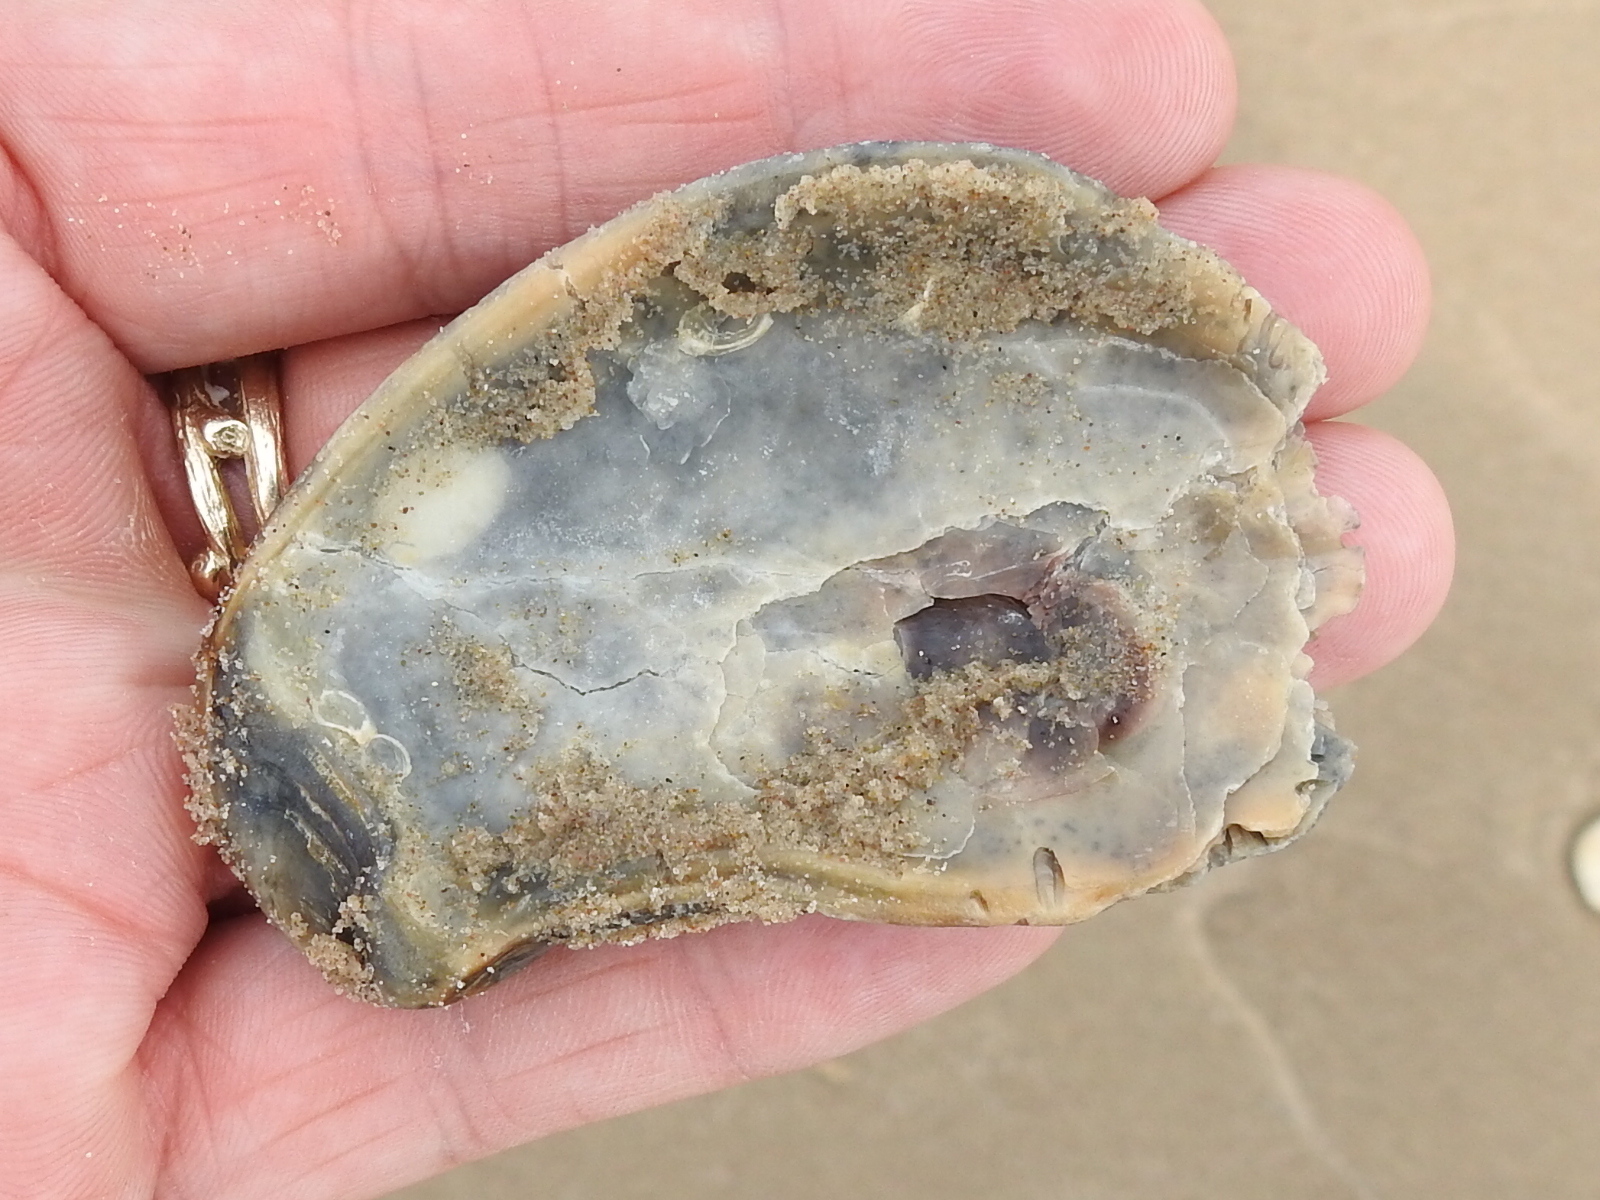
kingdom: Animalia
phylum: Mollusca
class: Bivalvia
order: Ostreida
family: Ostreidae
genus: Crassostrea
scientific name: Crassostrea virginica
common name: American oyster
